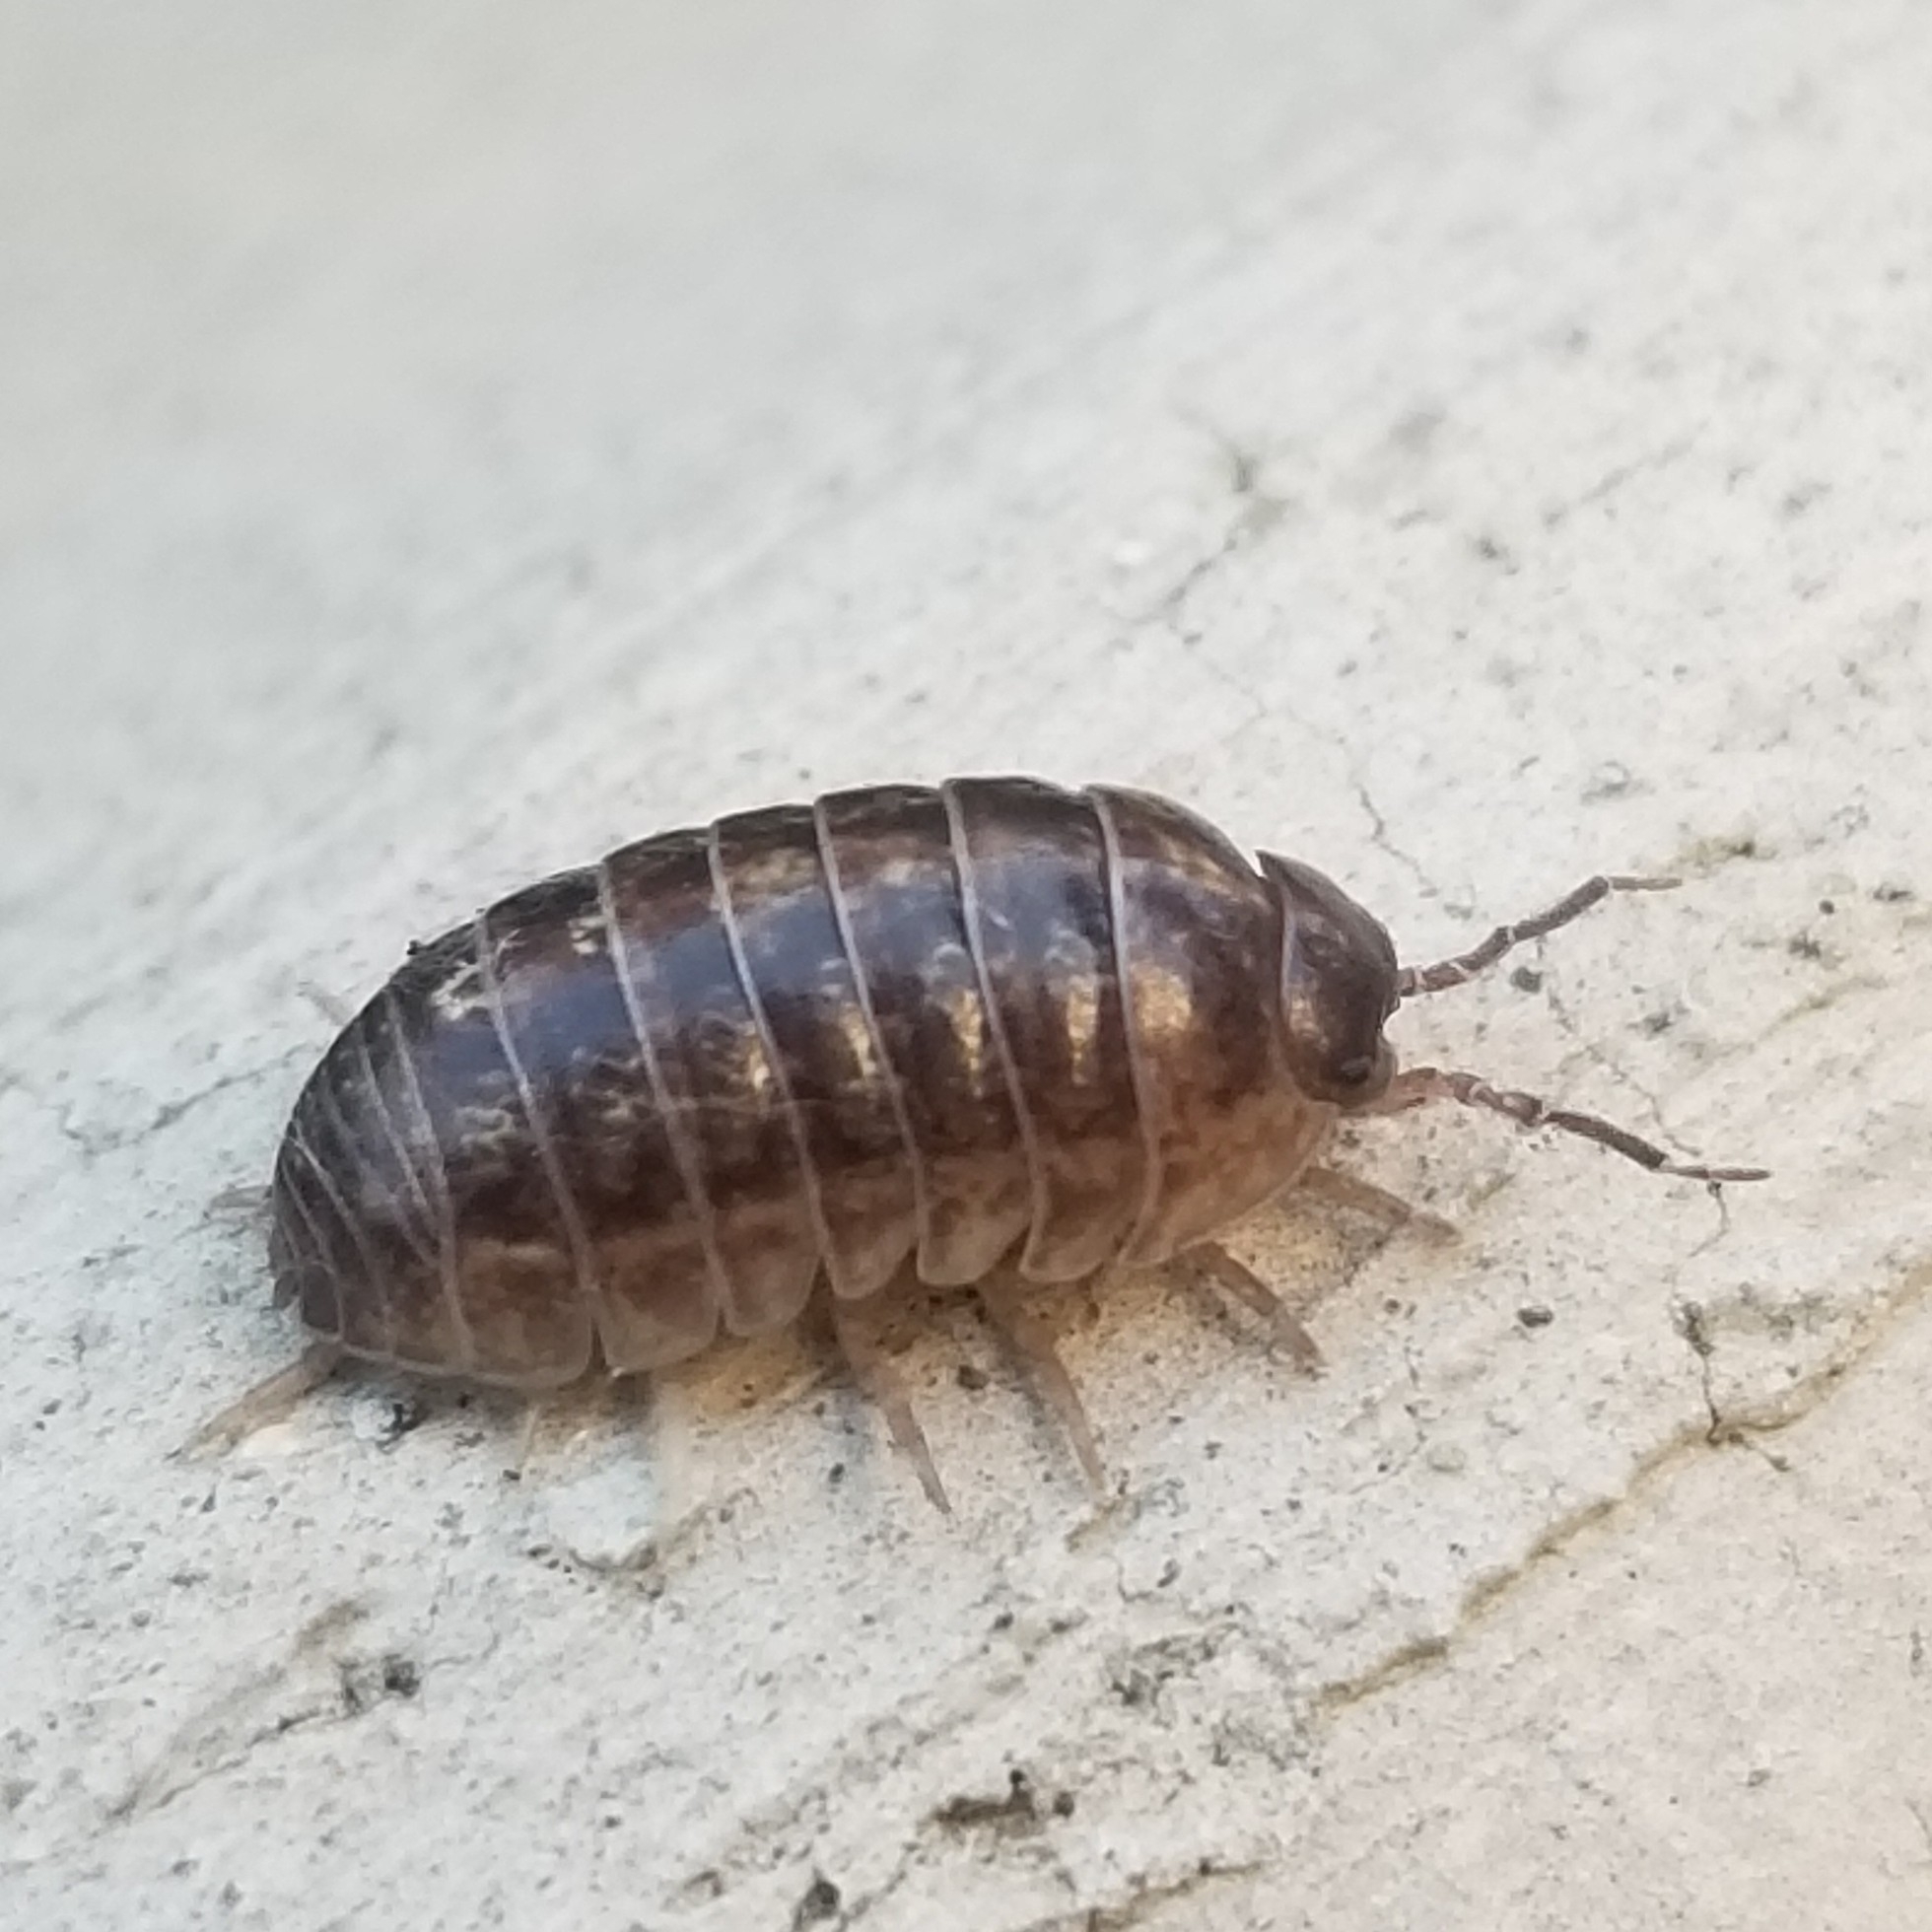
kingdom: Animalia
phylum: Arthropoda
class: Malacostraca
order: Isopoda
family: Armadillidiidae
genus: Armadillidium
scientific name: Armadillidium vulgare
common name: Common pill woodlouse
